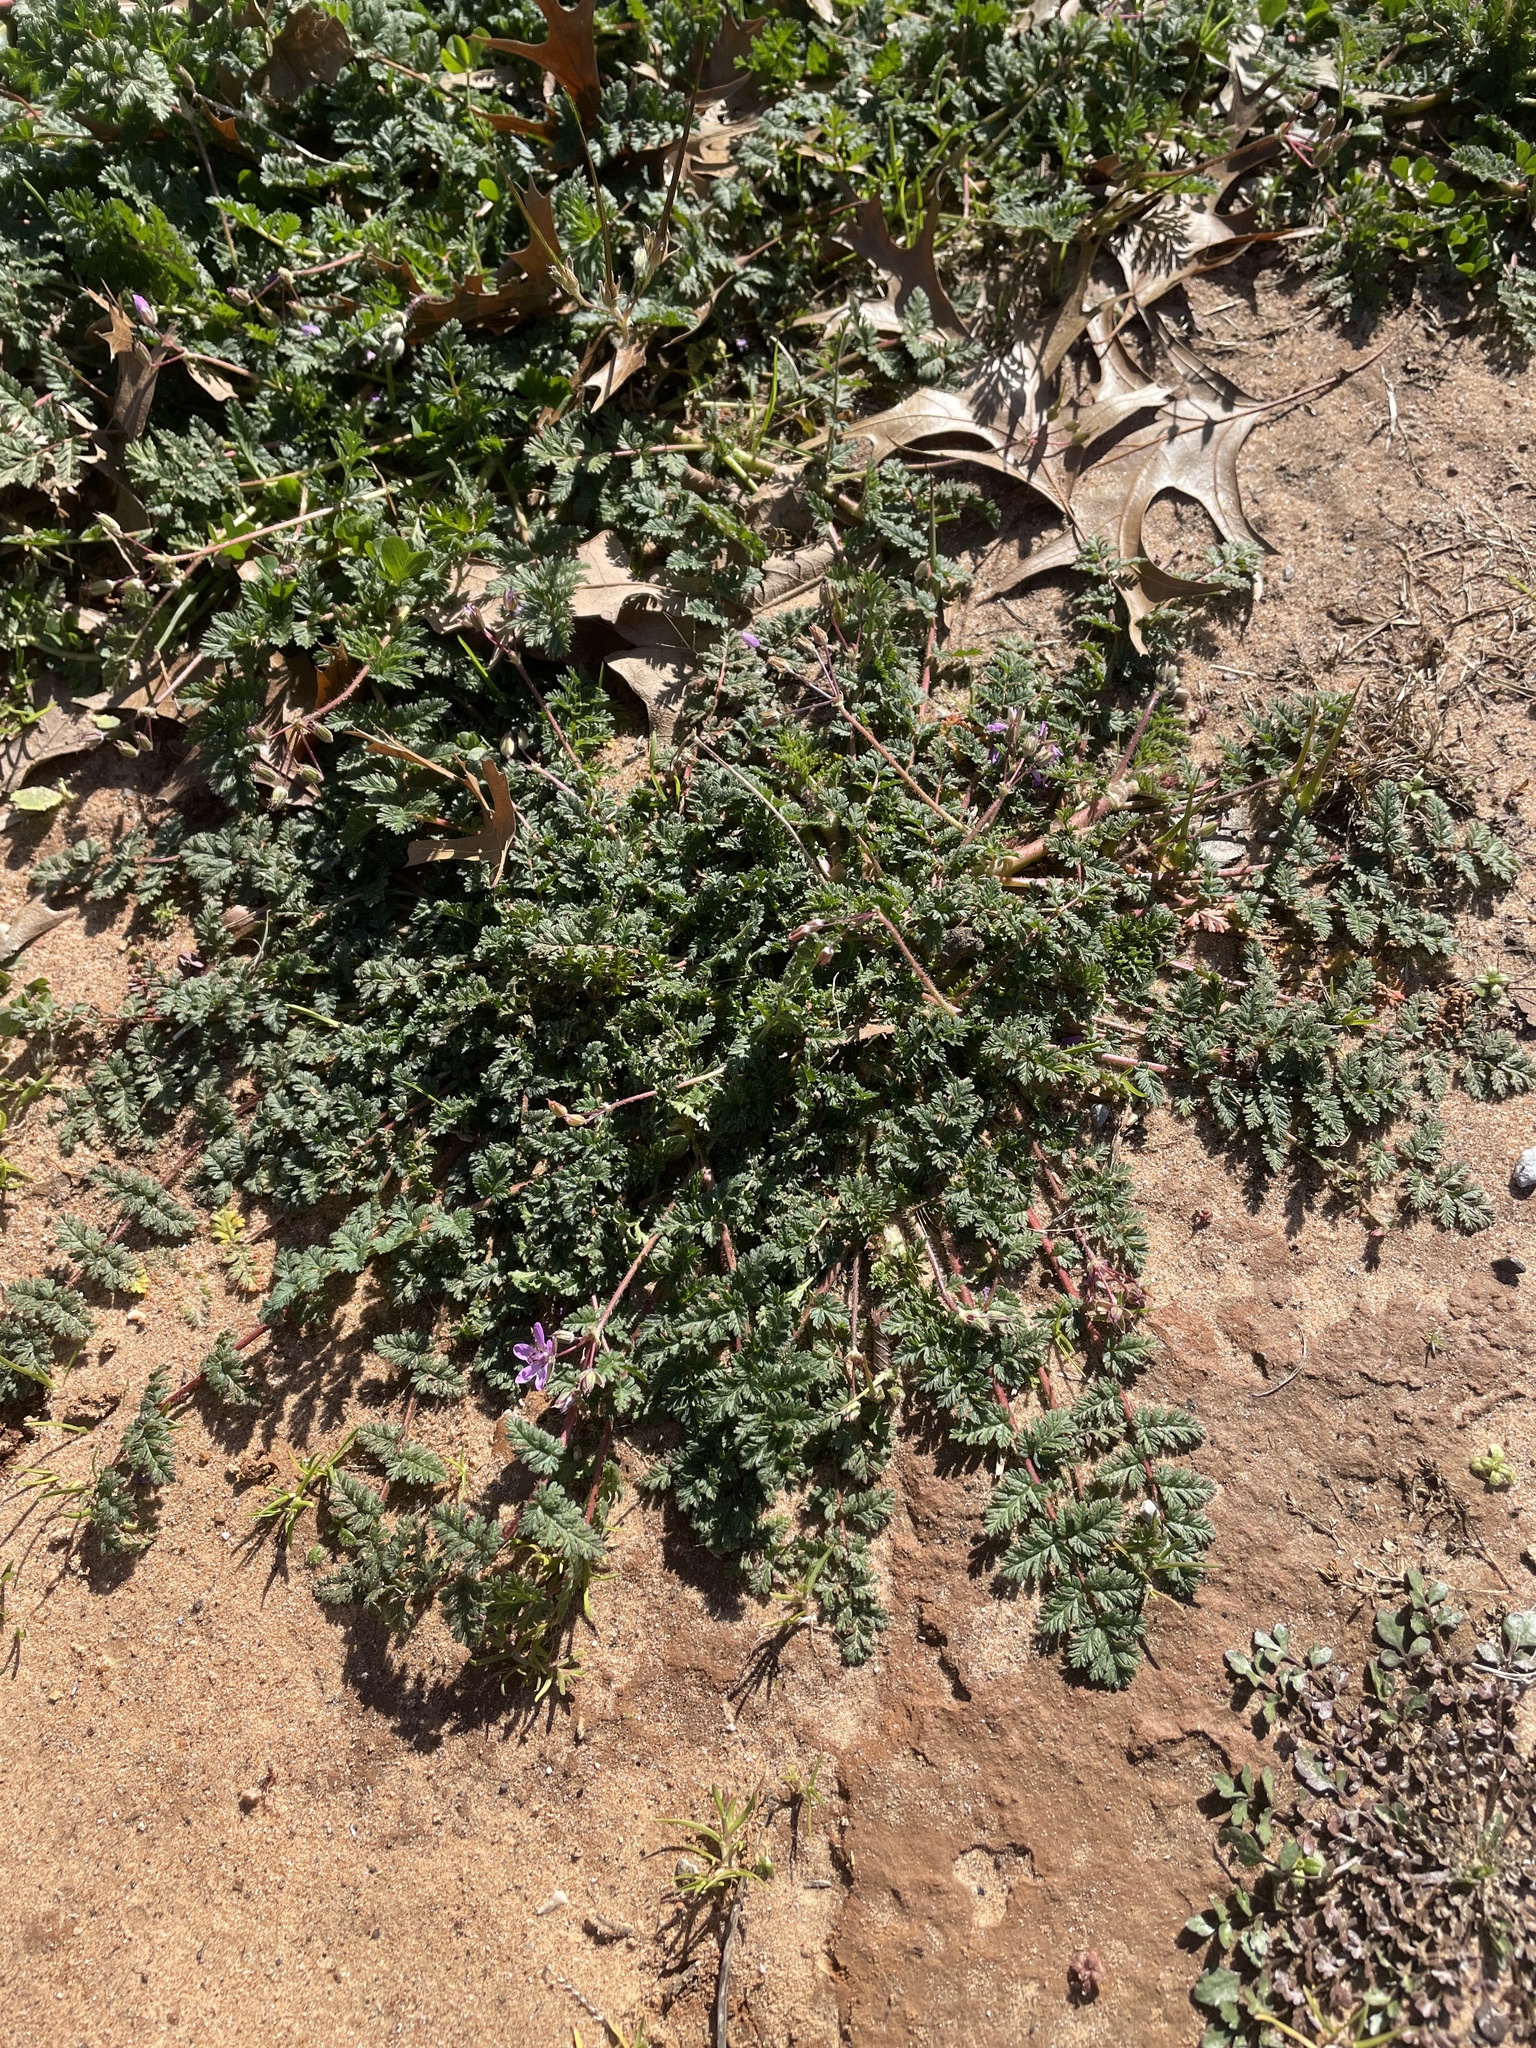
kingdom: Plantae
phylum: Tracheophyta
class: Magnoliopsida
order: Geraniales
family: Geraniaceae
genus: Erodium
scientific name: Erodium cicutarium
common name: Common stork's-bill
